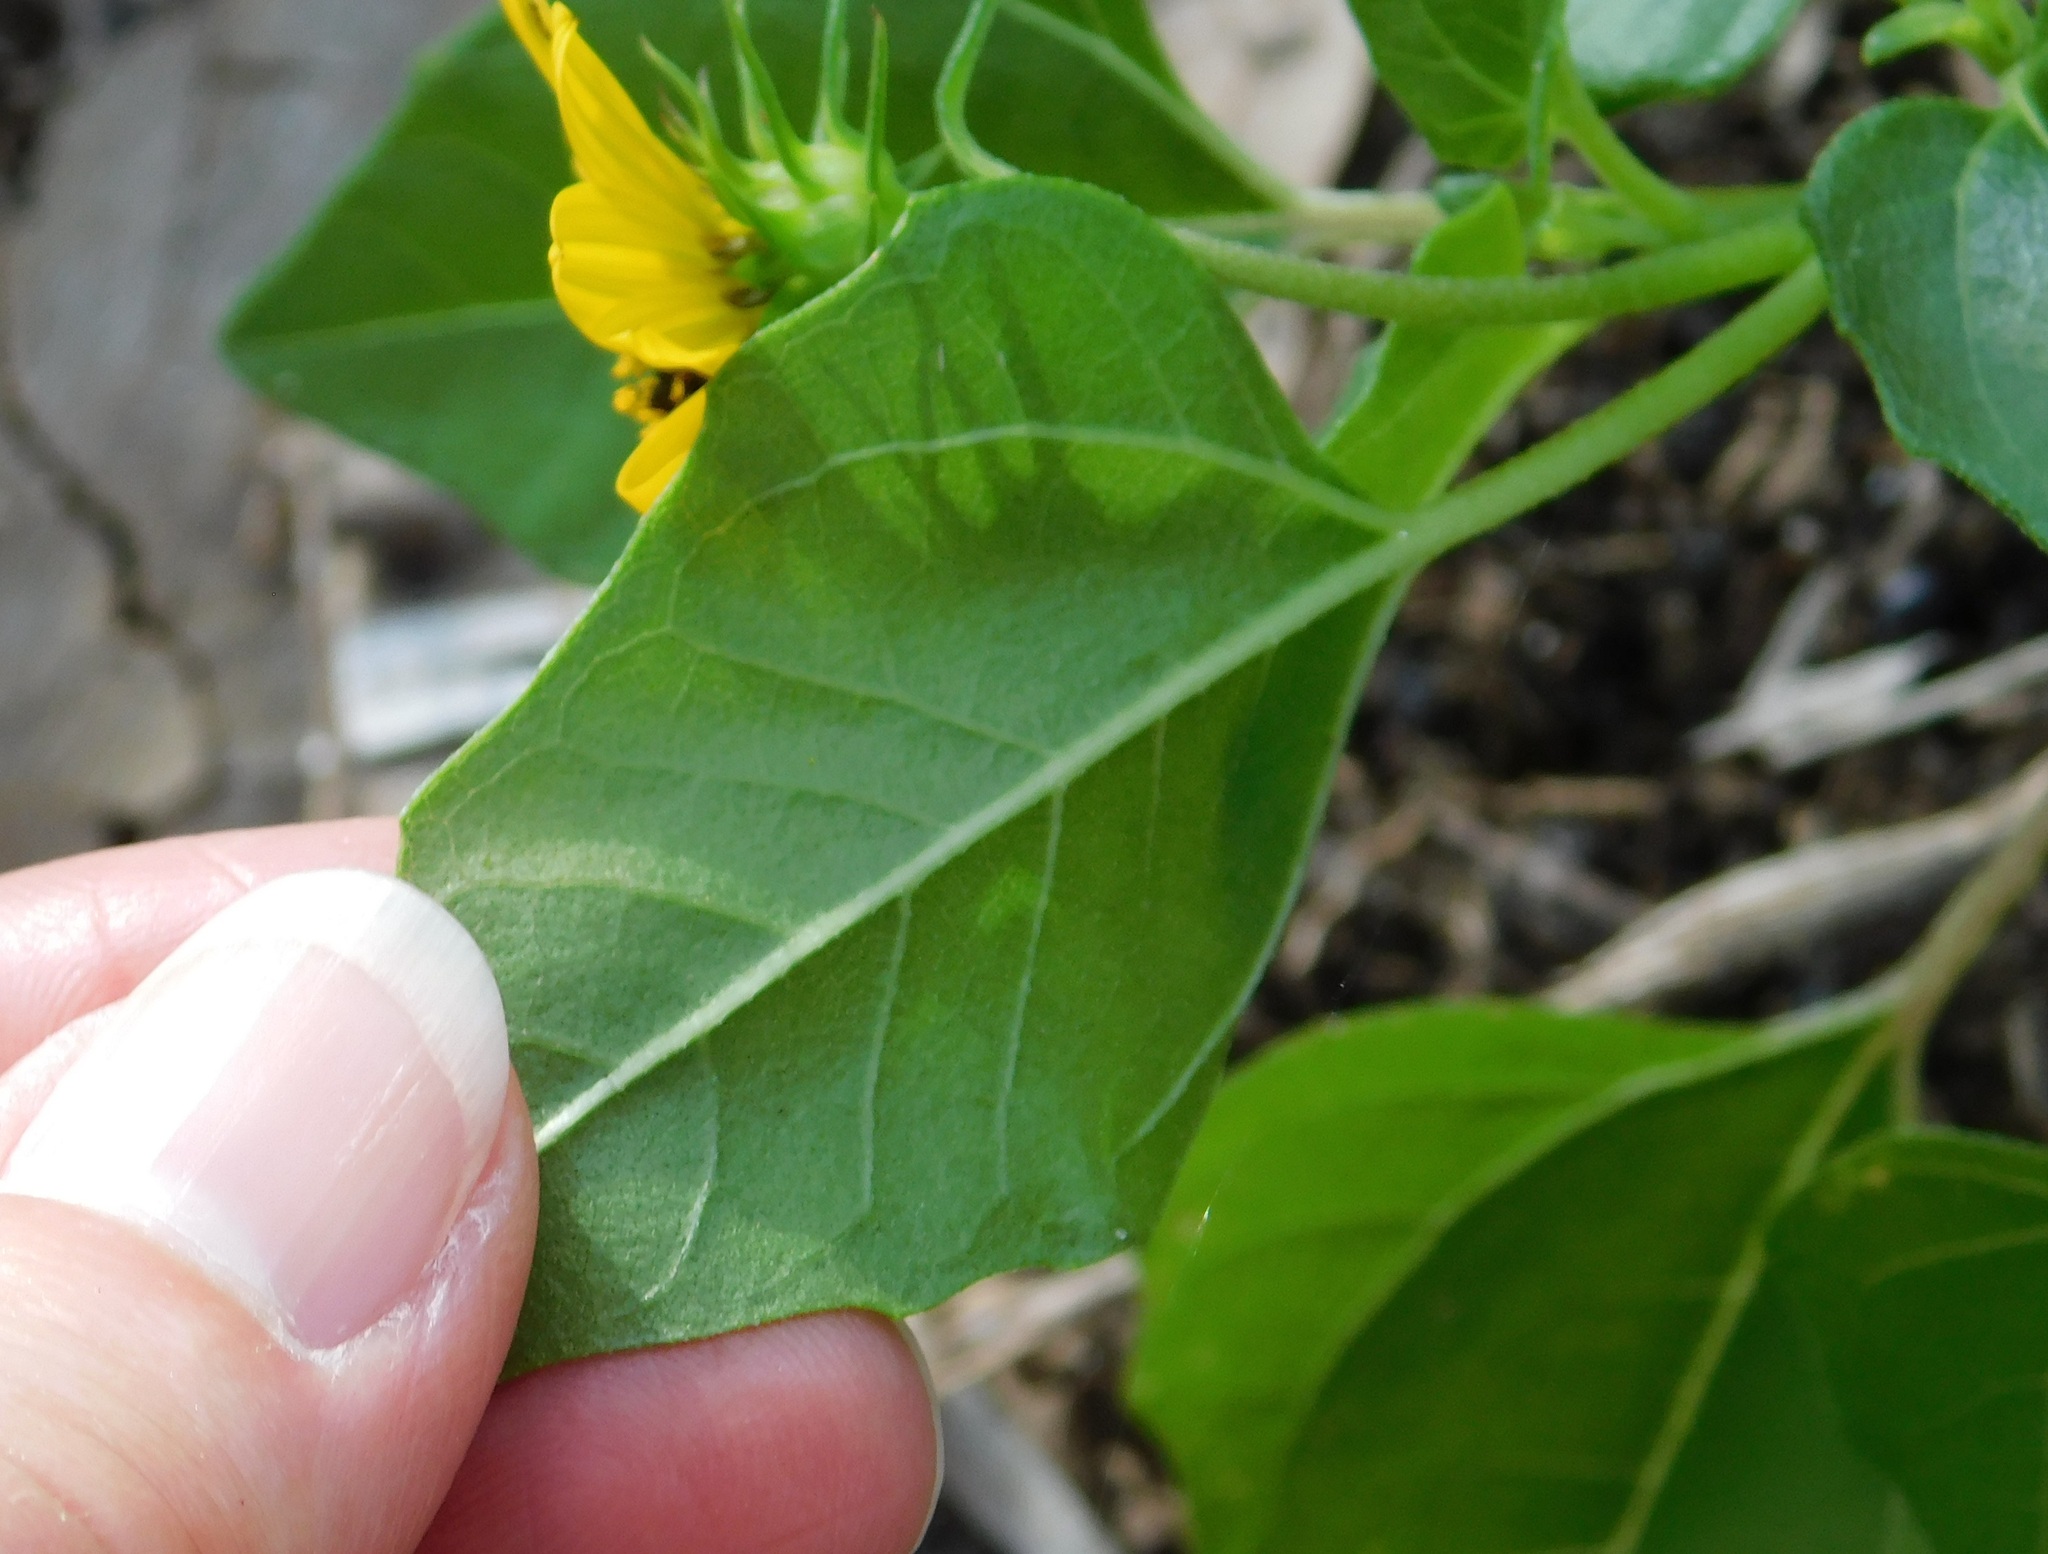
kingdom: Plantae
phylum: Tracheophyta
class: Magnoliopsida
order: Asterales
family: Asteraceae
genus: Helianthus
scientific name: Helianthus debilis
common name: Weak sunflower
